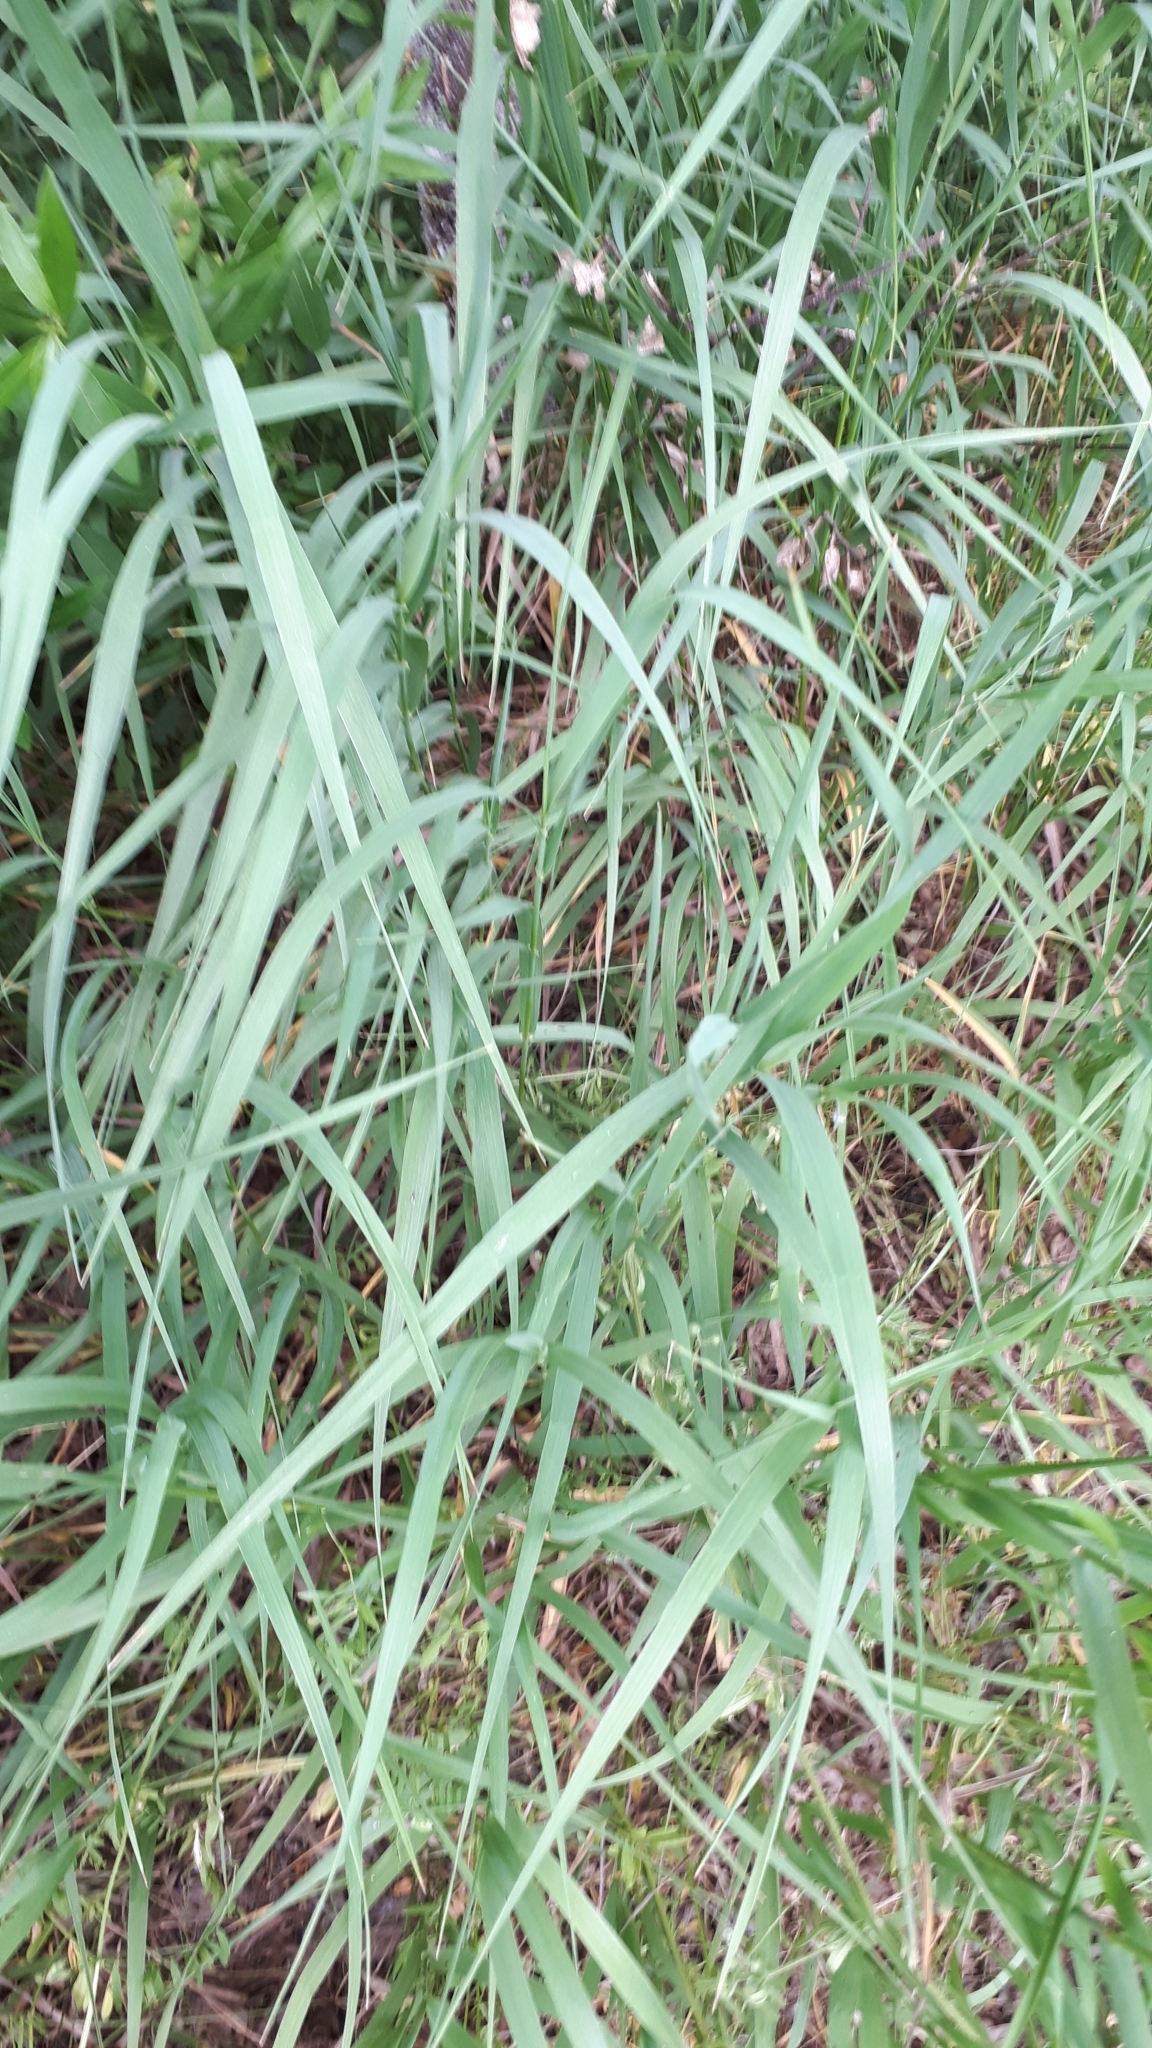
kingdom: Plantae
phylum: Tracheophyta
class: Liliopsida
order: Poales
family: Poaceae
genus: Bromus
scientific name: Bromus inermis
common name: Smooth brome
